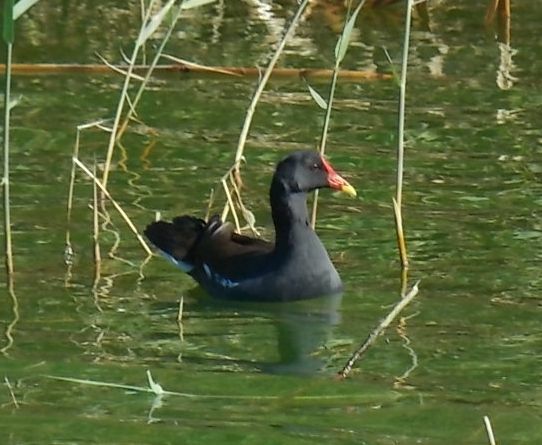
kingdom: Animalia
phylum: Chordata
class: Aves
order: Gruiformes
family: Rallidae
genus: Gallinula
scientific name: Gallinula chloropus
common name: Common moorhen
